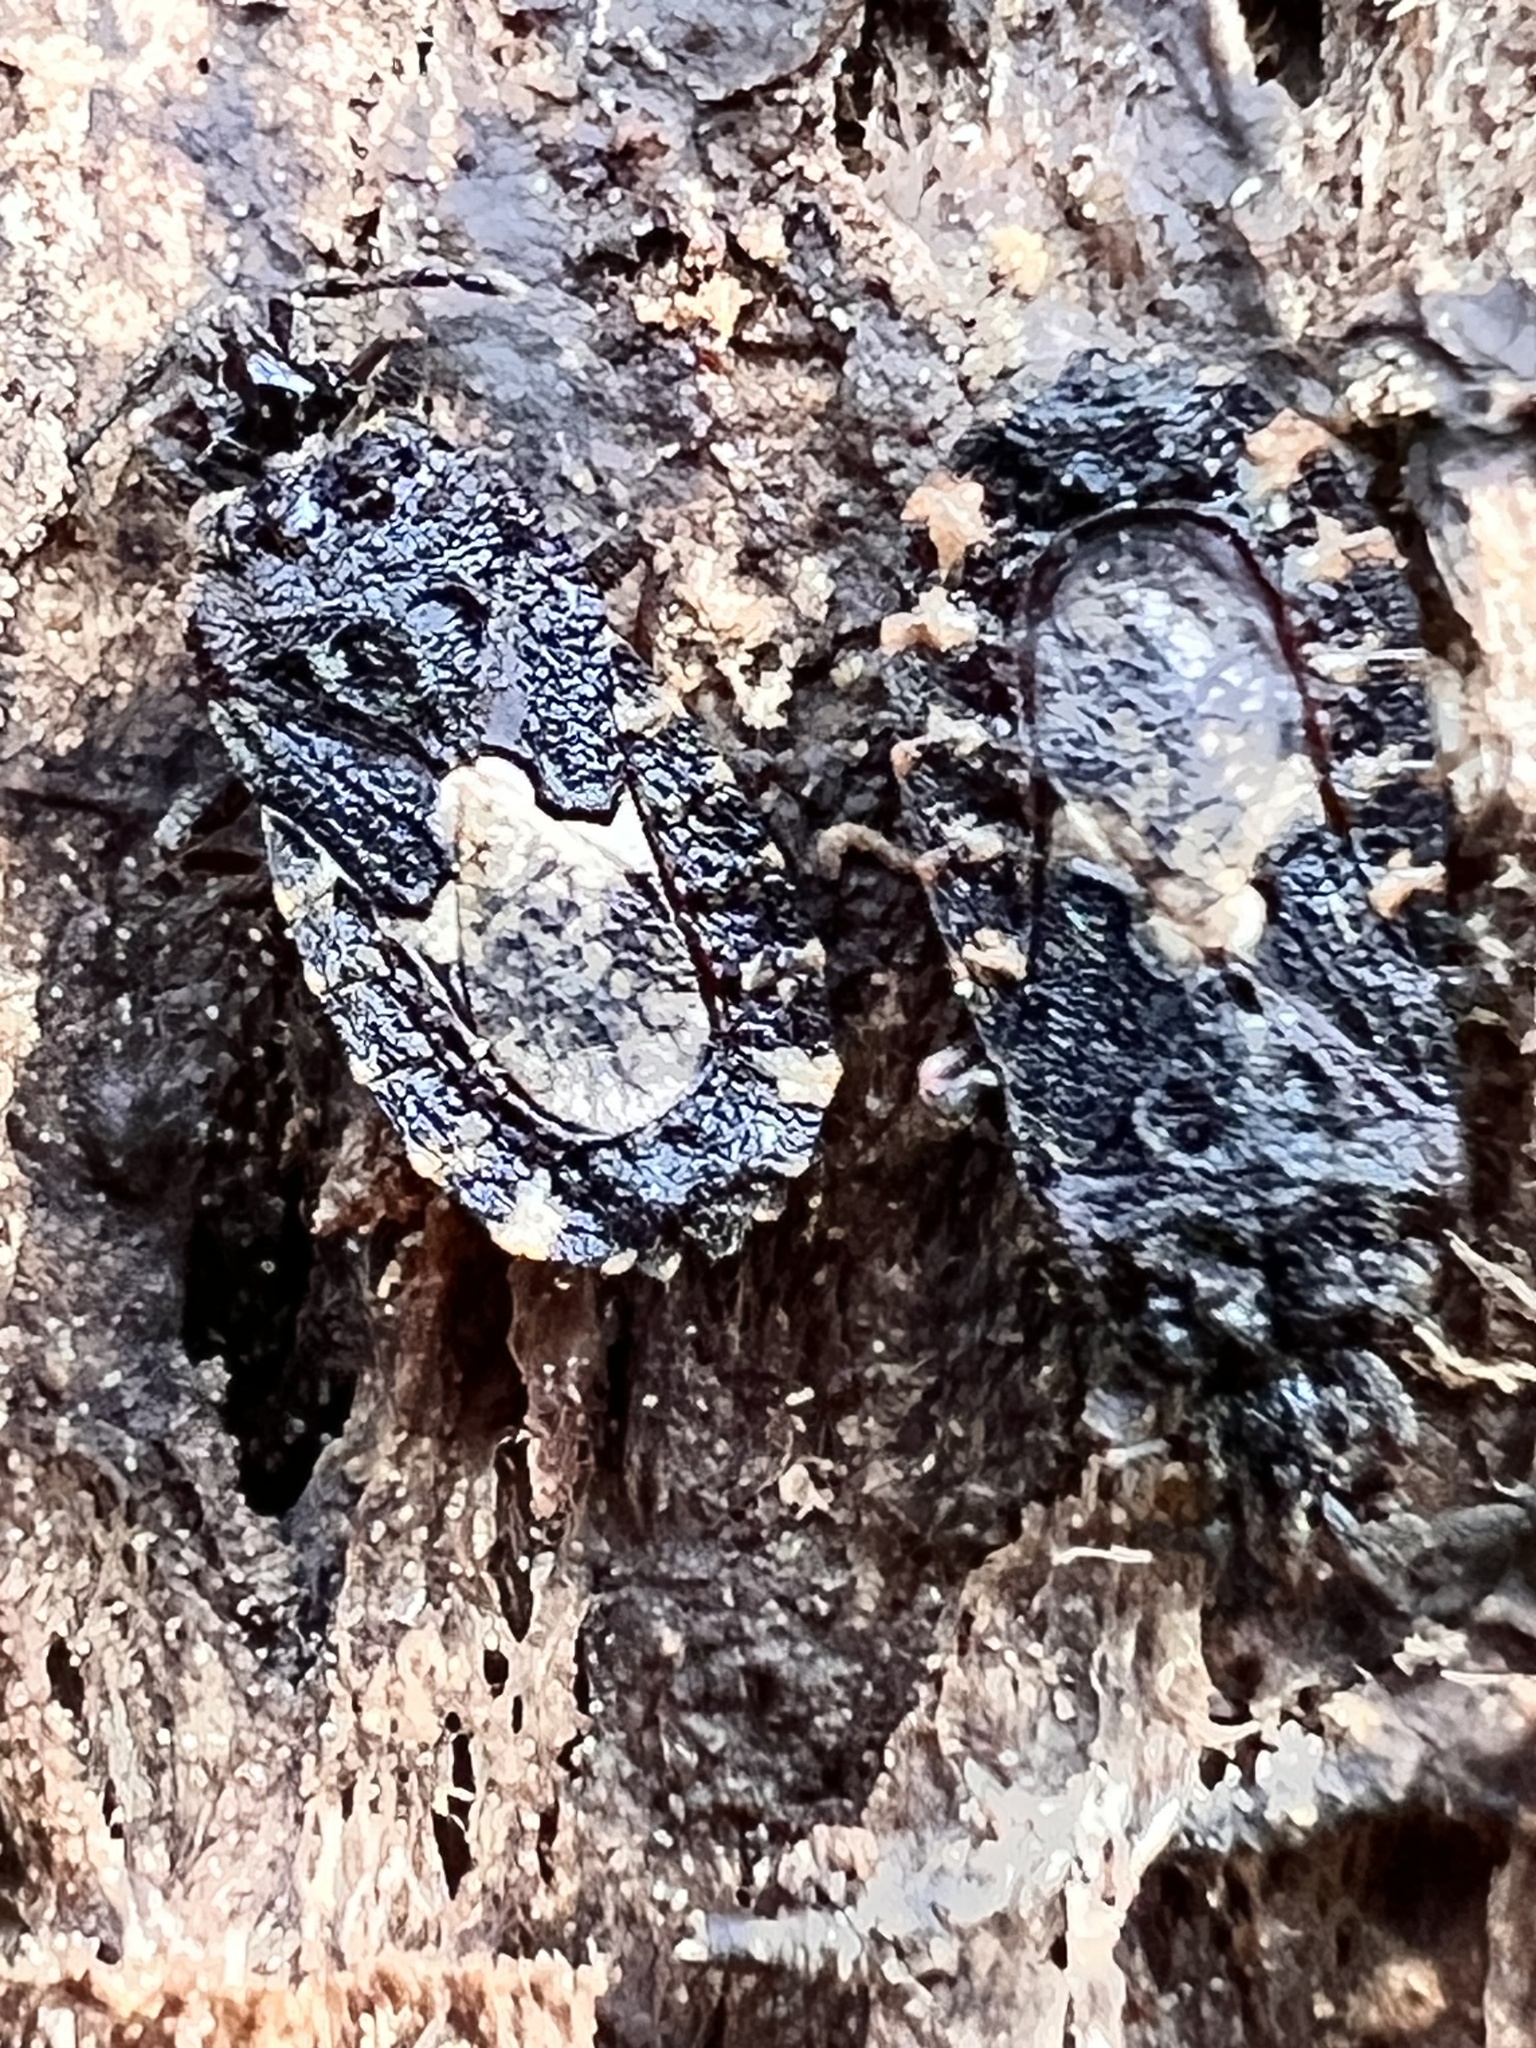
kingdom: Animalia
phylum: Arthropoda
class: Insecta
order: Hemiptera
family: Aradidae
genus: Mezira
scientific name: Mezira
